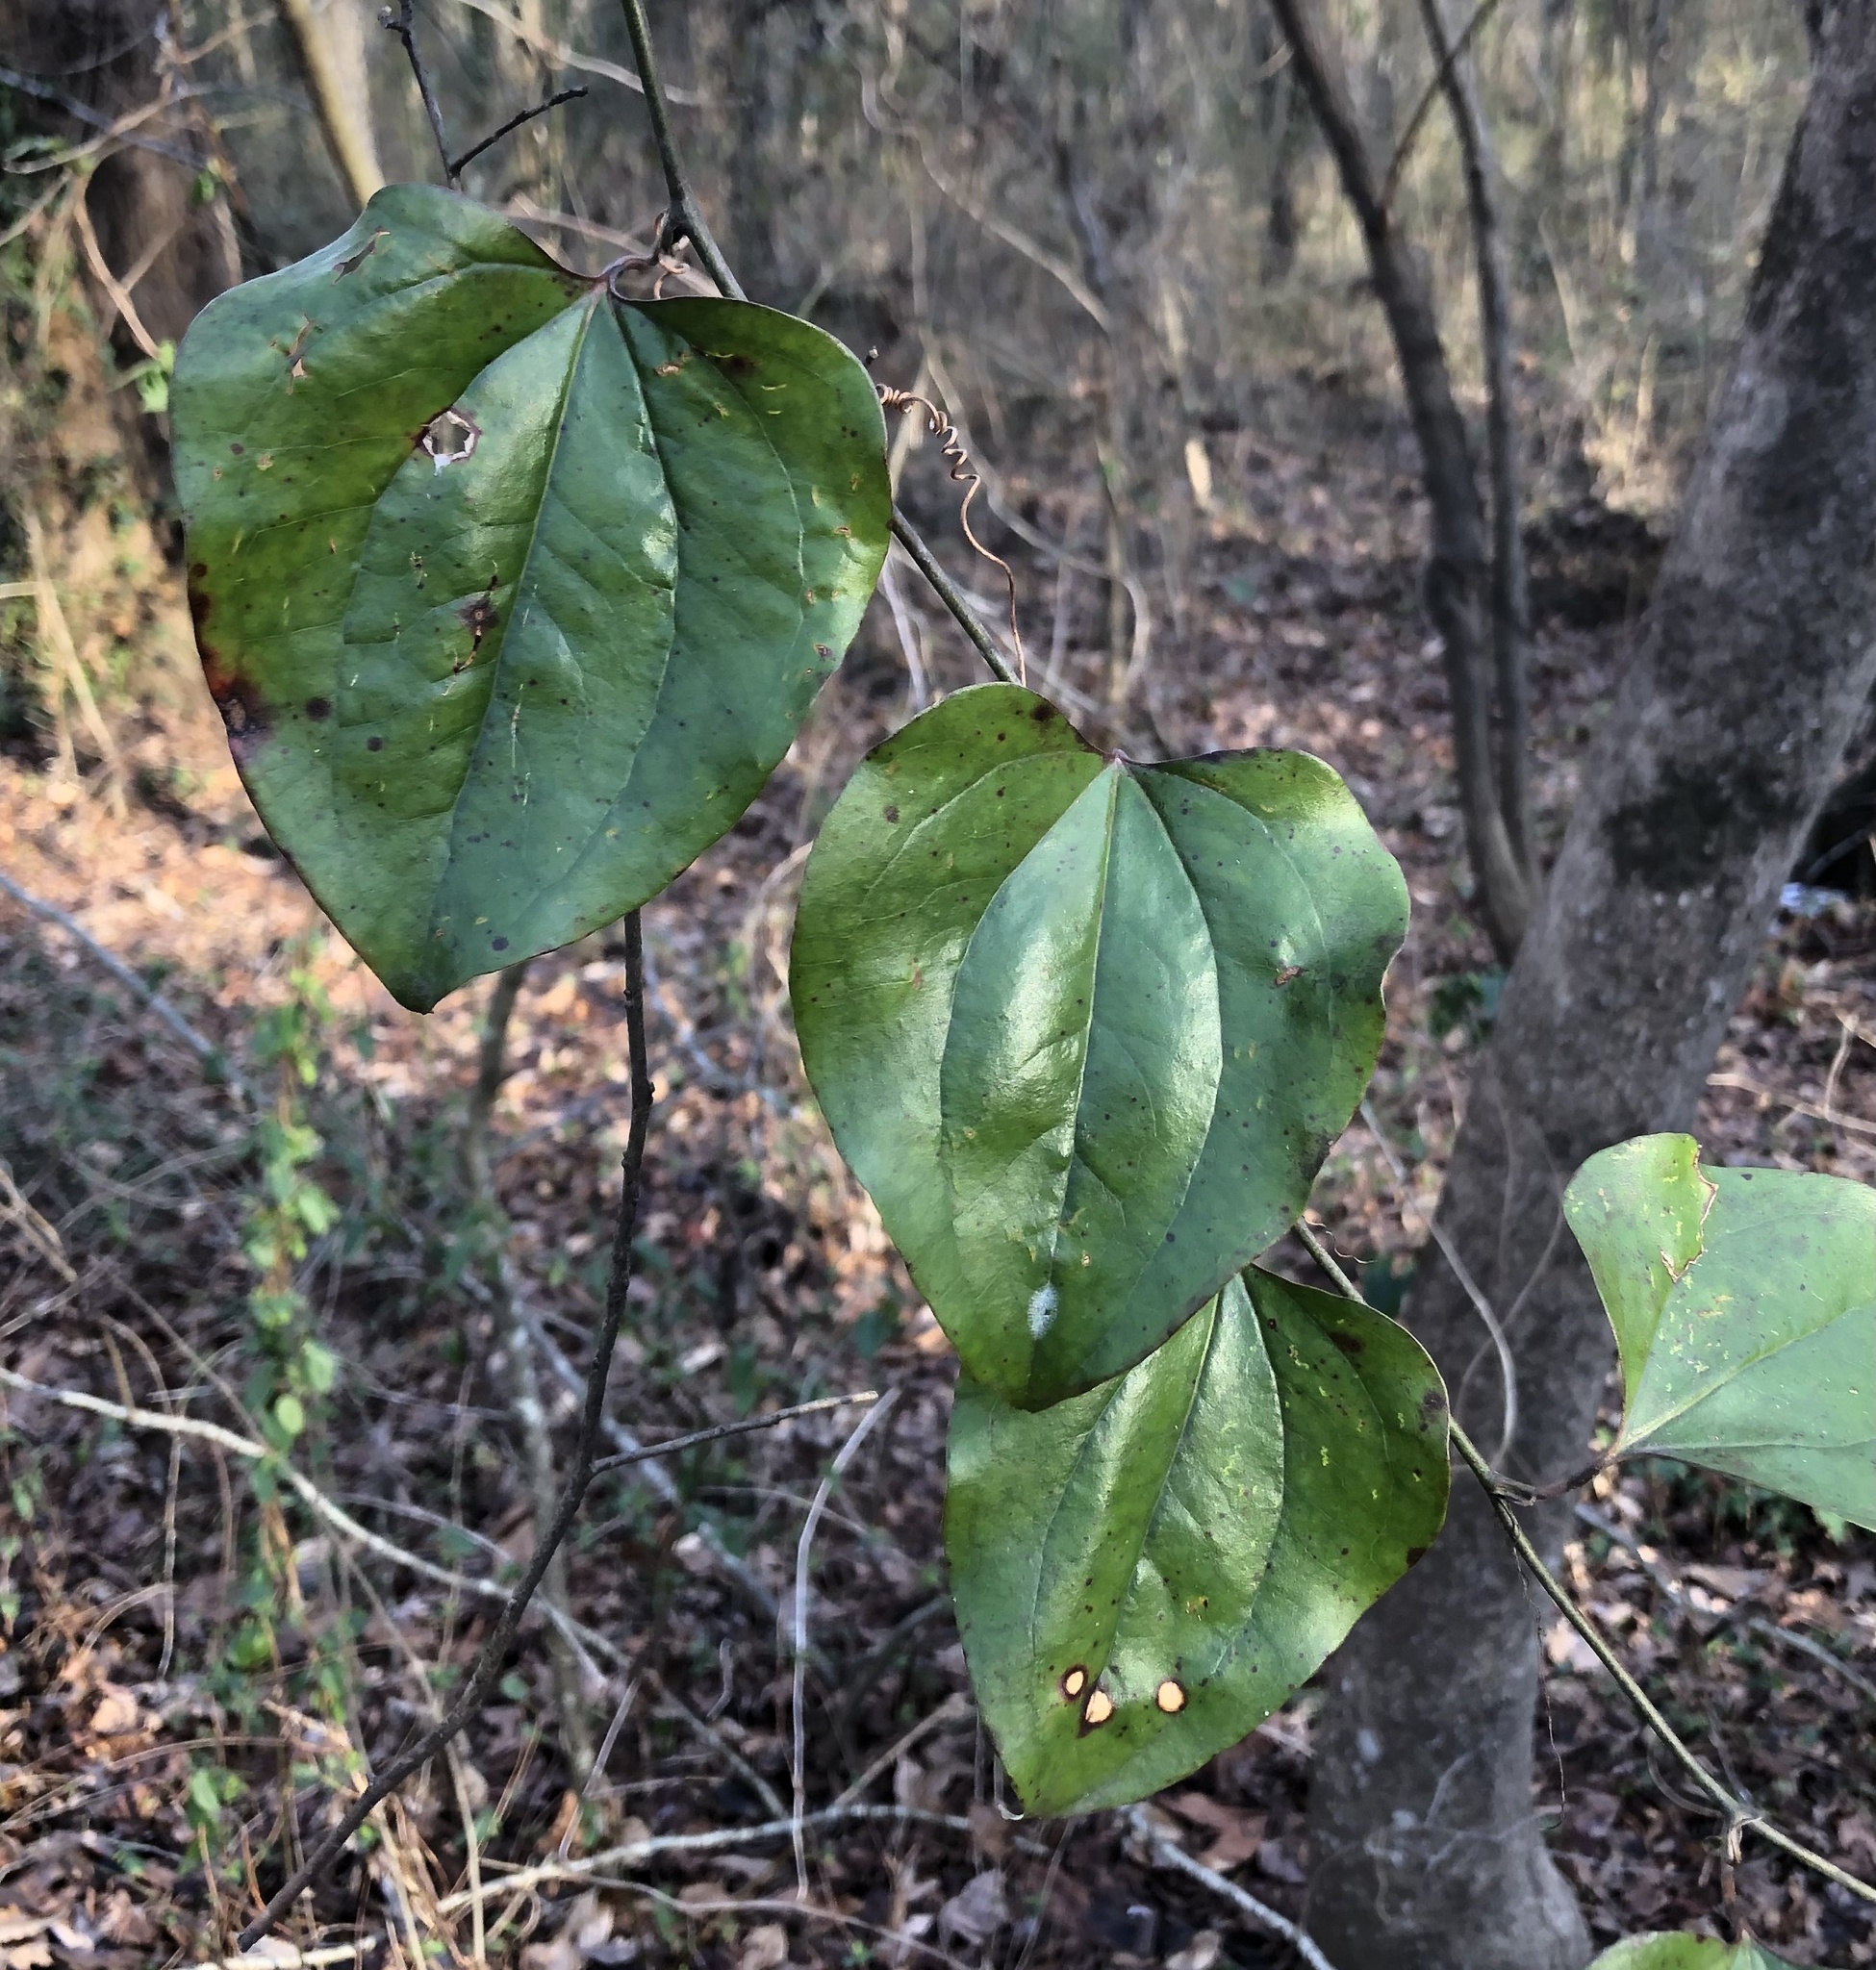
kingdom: Plantae
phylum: Tracheophyta
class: Liliopsida
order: Liliales
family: Smilacaceae
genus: Smilax
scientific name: Smilax rotundifolia
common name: Bullbriar
